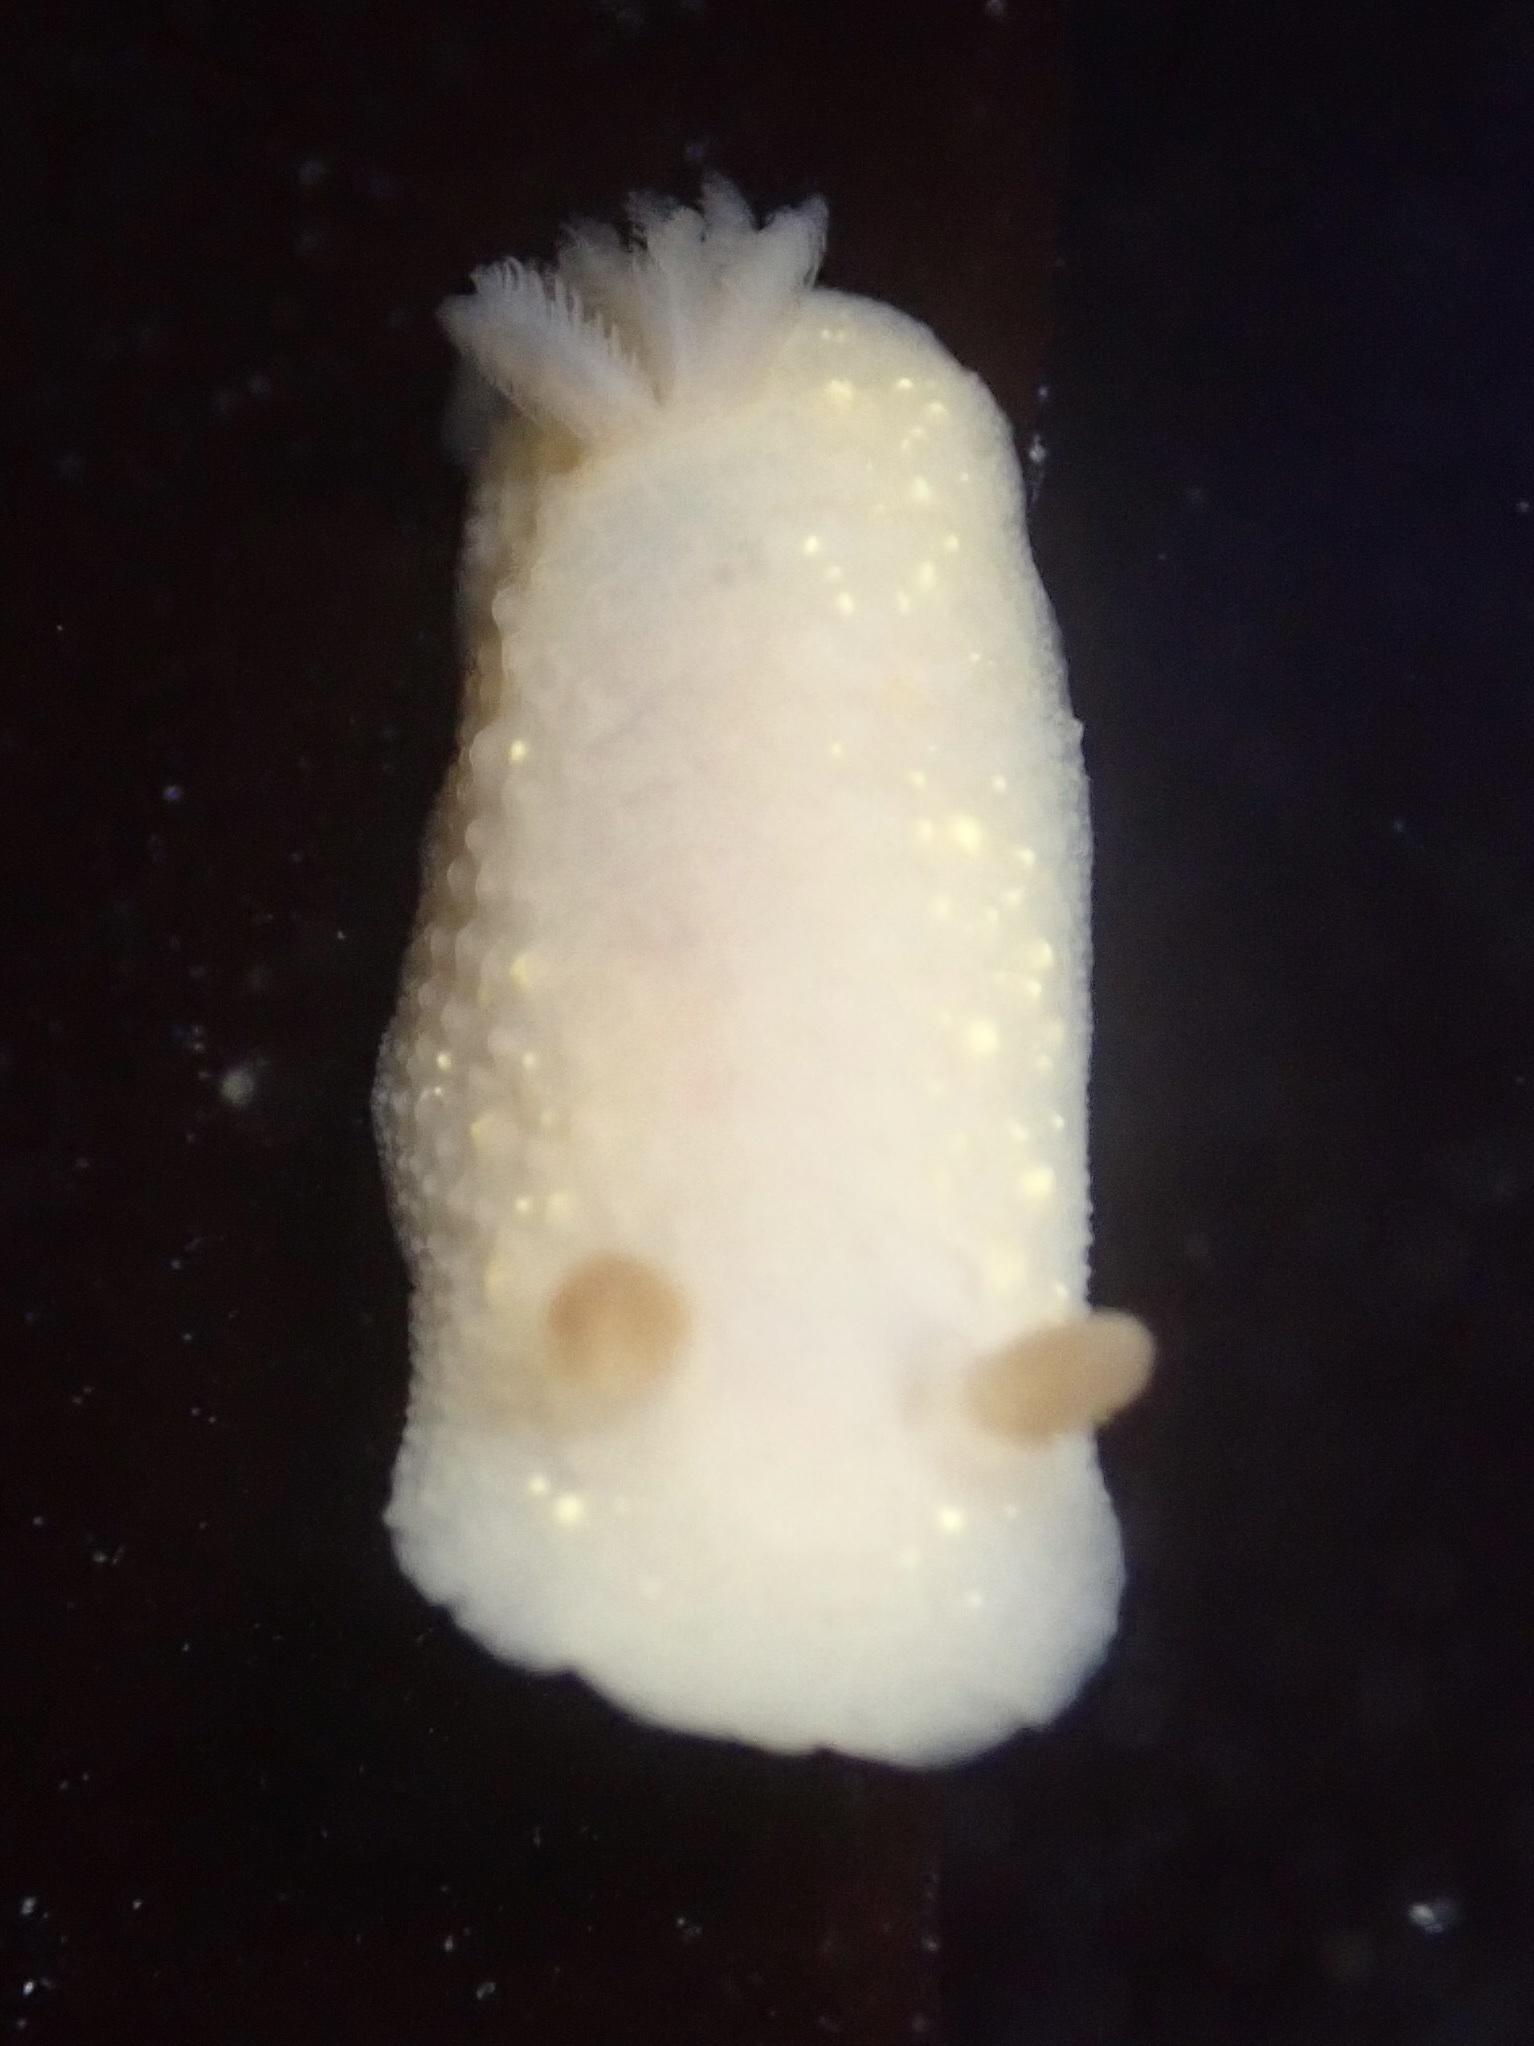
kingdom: Animalia
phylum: Mollusca
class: Gastropoda
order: Nudibranchia
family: Cadlinidae
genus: Cadlina
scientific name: Cadlina modesta
